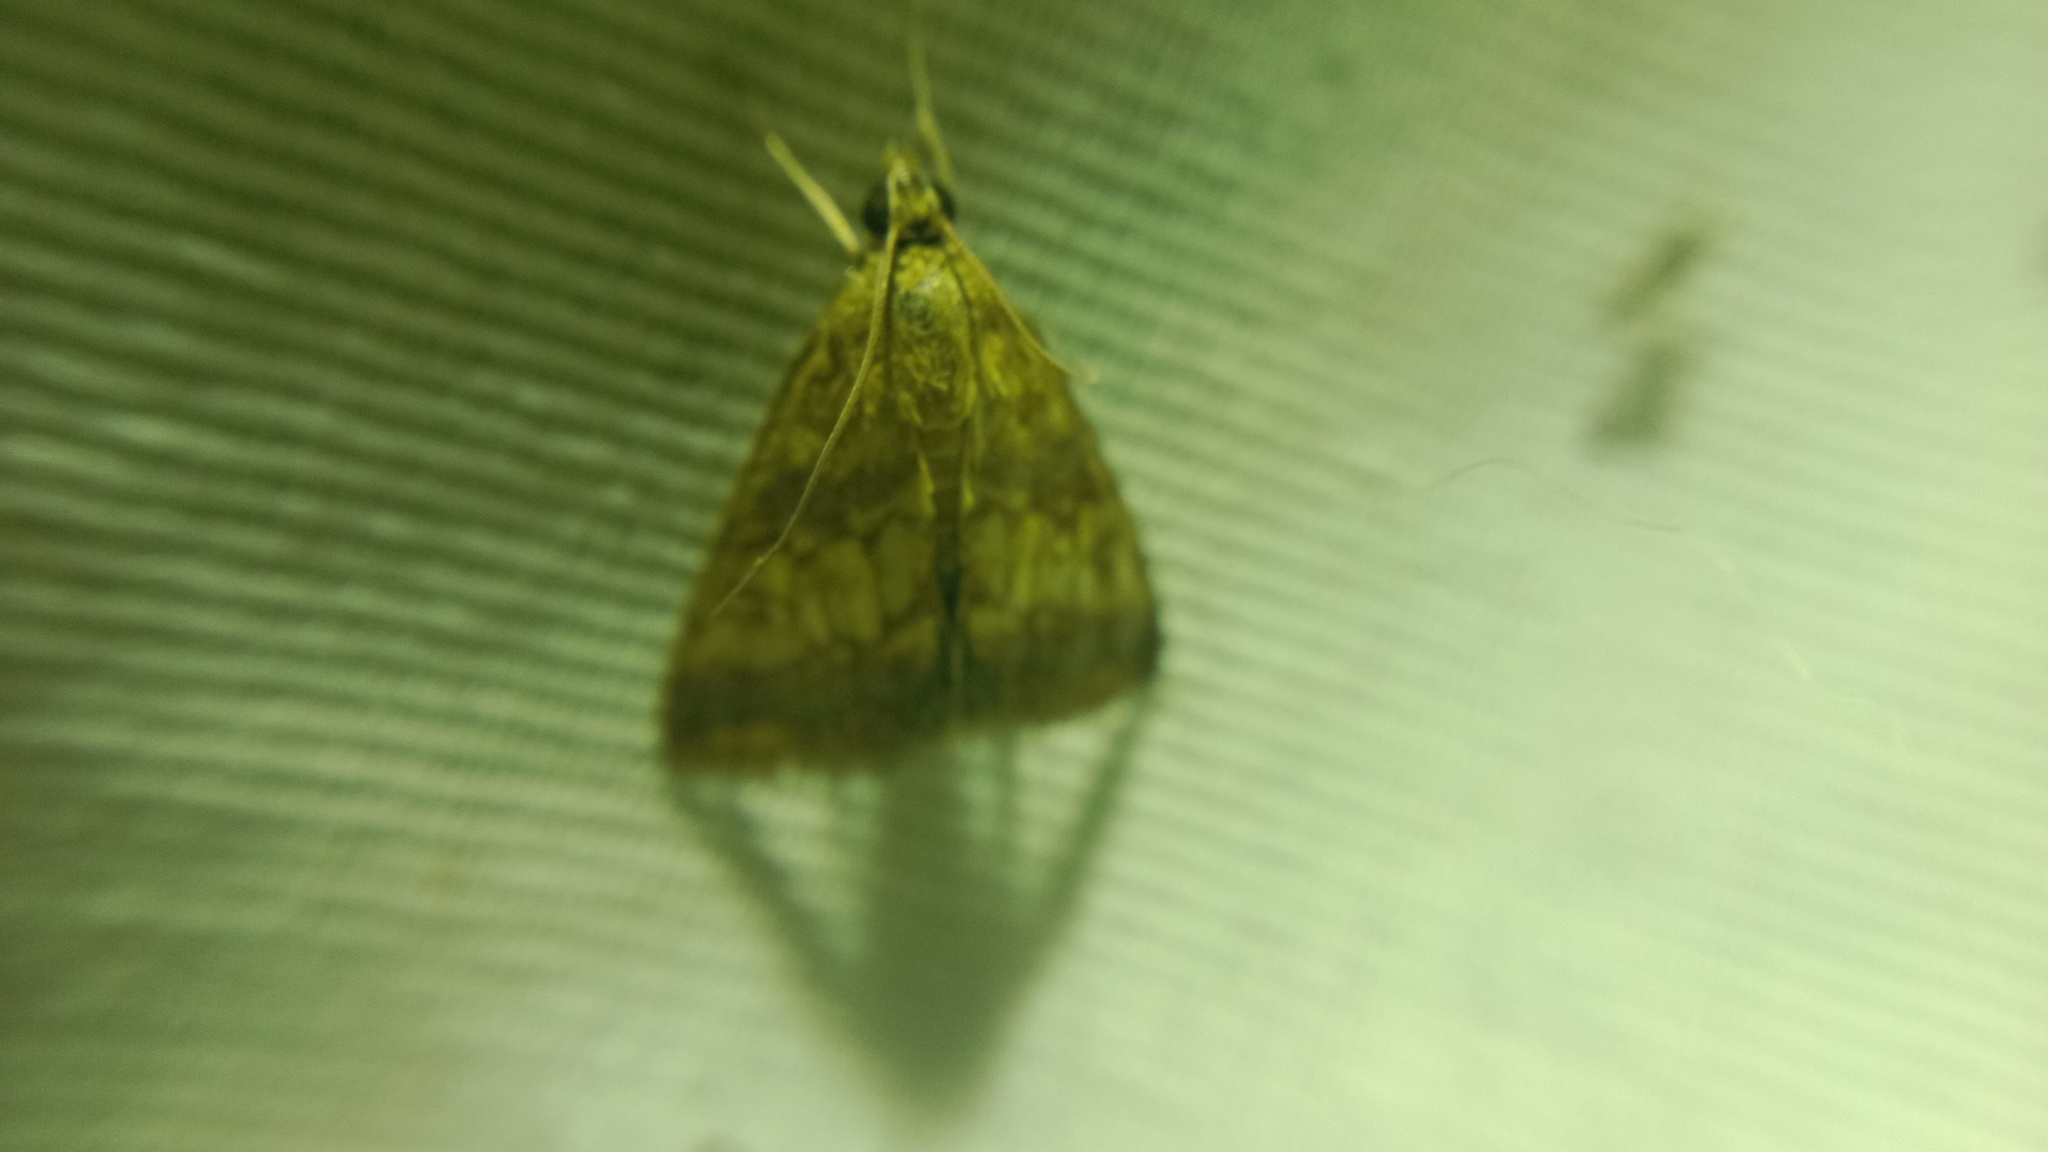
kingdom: Animalia
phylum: Arthropoda
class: Insecta
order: Lepidoptera
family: Crambidae
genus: Evergestis
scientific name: Evergestis politalis
